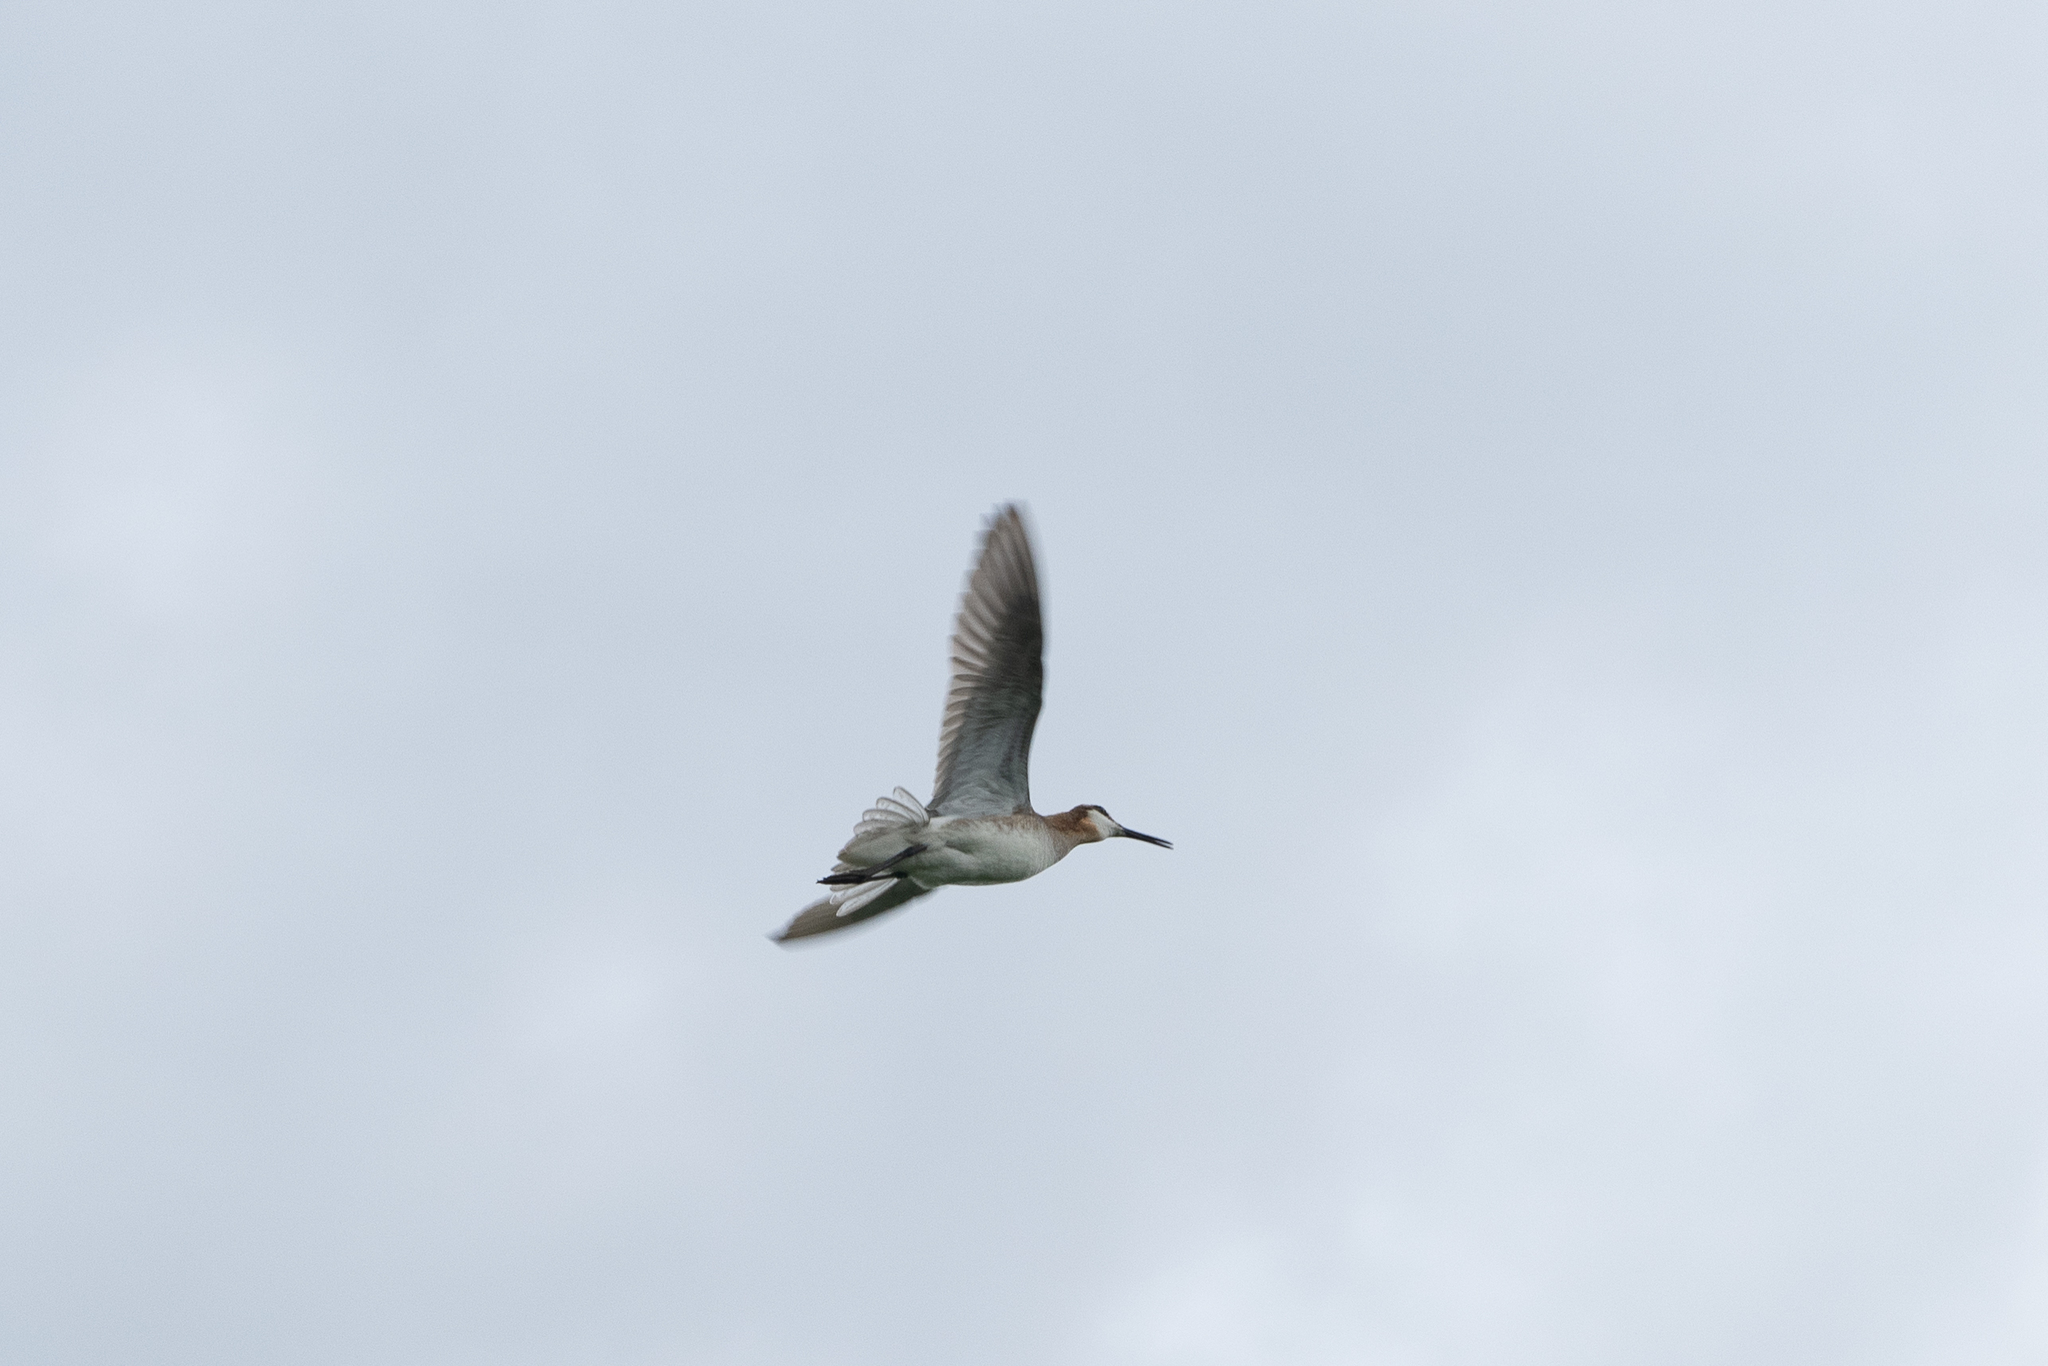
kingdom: Animalia
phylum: Chordata
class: Aves
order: Charadriiformes
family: Scolopacidae
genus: Phalaropus
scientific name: Phalaropus tricolor
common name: Wilson's phalarope
